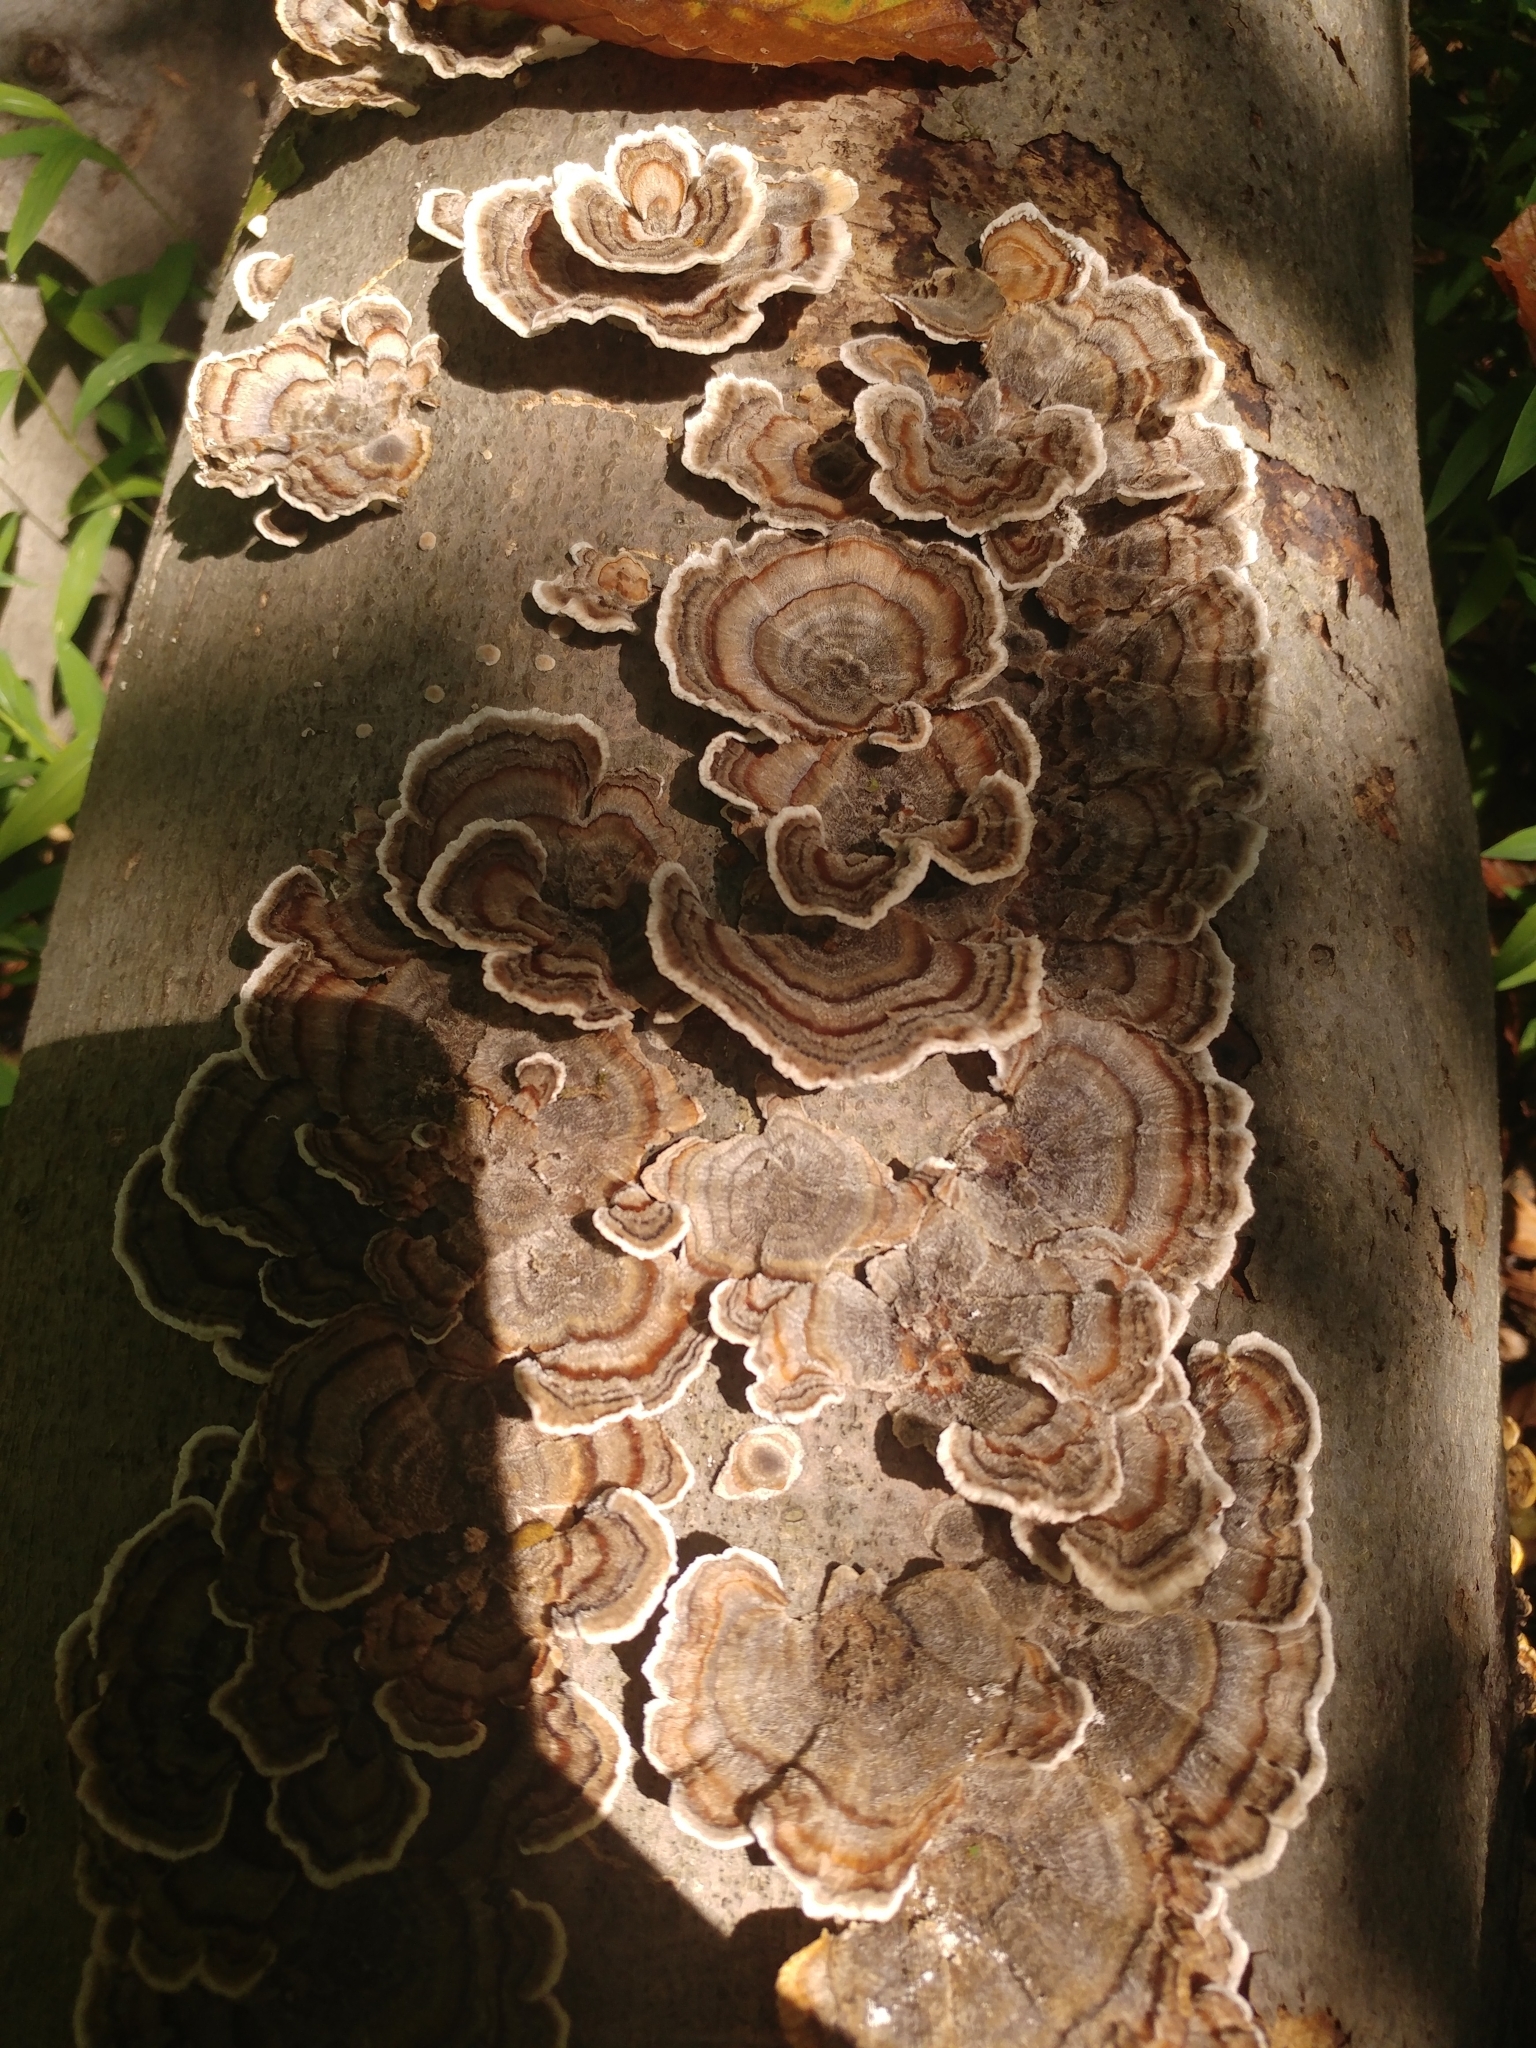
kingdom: Fungi
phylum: Basidiomycota
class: Agaricomycetes
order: Polyporales
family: Polyporaceae
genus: Trametes
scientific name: Trametes versicolor
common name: Turkeytail
